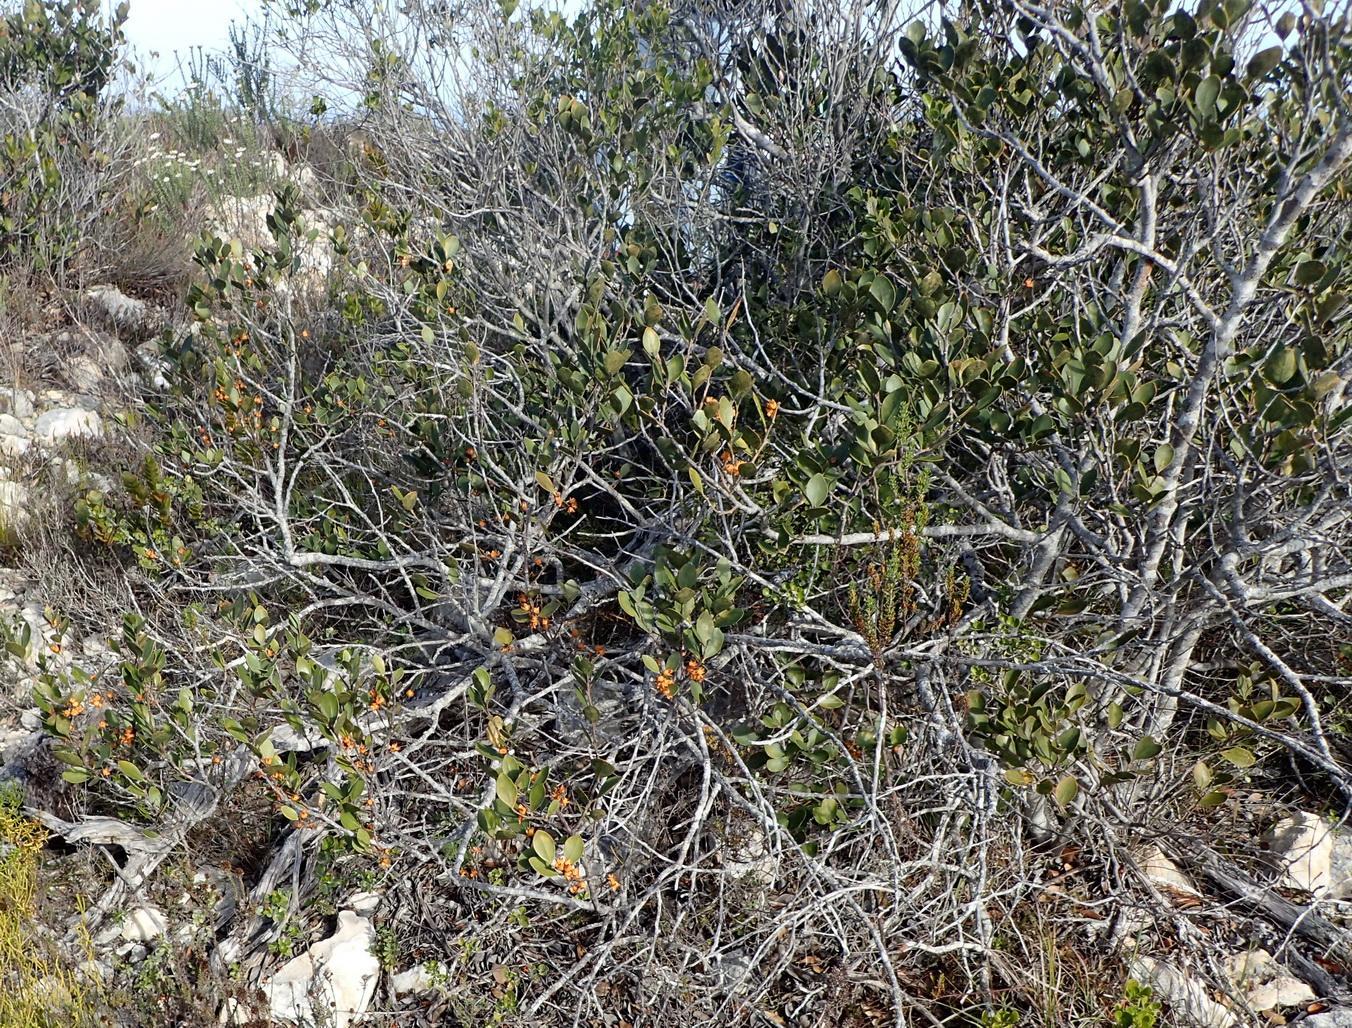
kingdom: Plantae
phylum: Tracheophyta
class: Magnoliopsida
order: Celastrales
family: Celastraceae
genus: Pterocelastrus
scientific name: Pterocelastrus tricuspidatus
